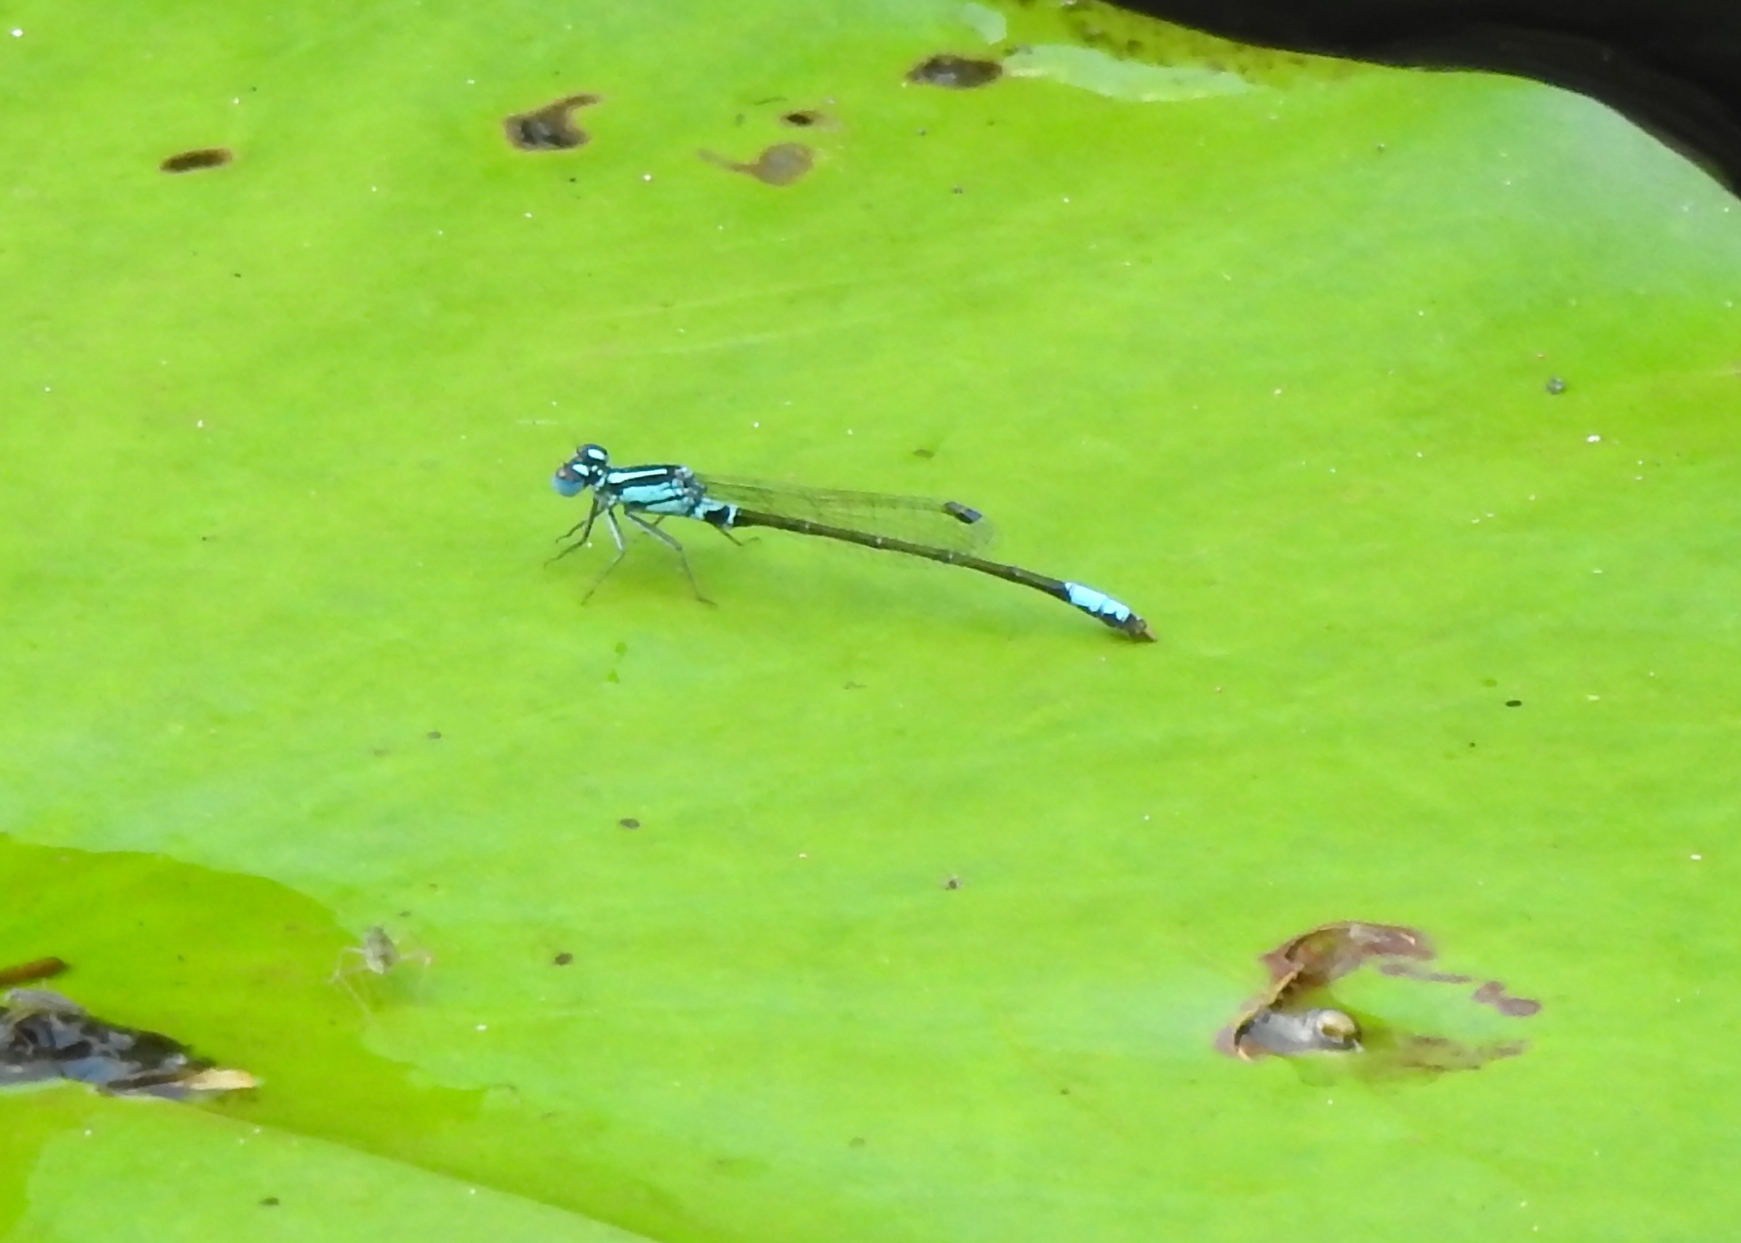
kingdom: Animalia
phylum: Arthropoda
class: Insecta
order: Odonata
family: Coenagrionidae
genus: Ischnura
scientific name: Ischnura kellicotti
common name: Lilypad forktail
